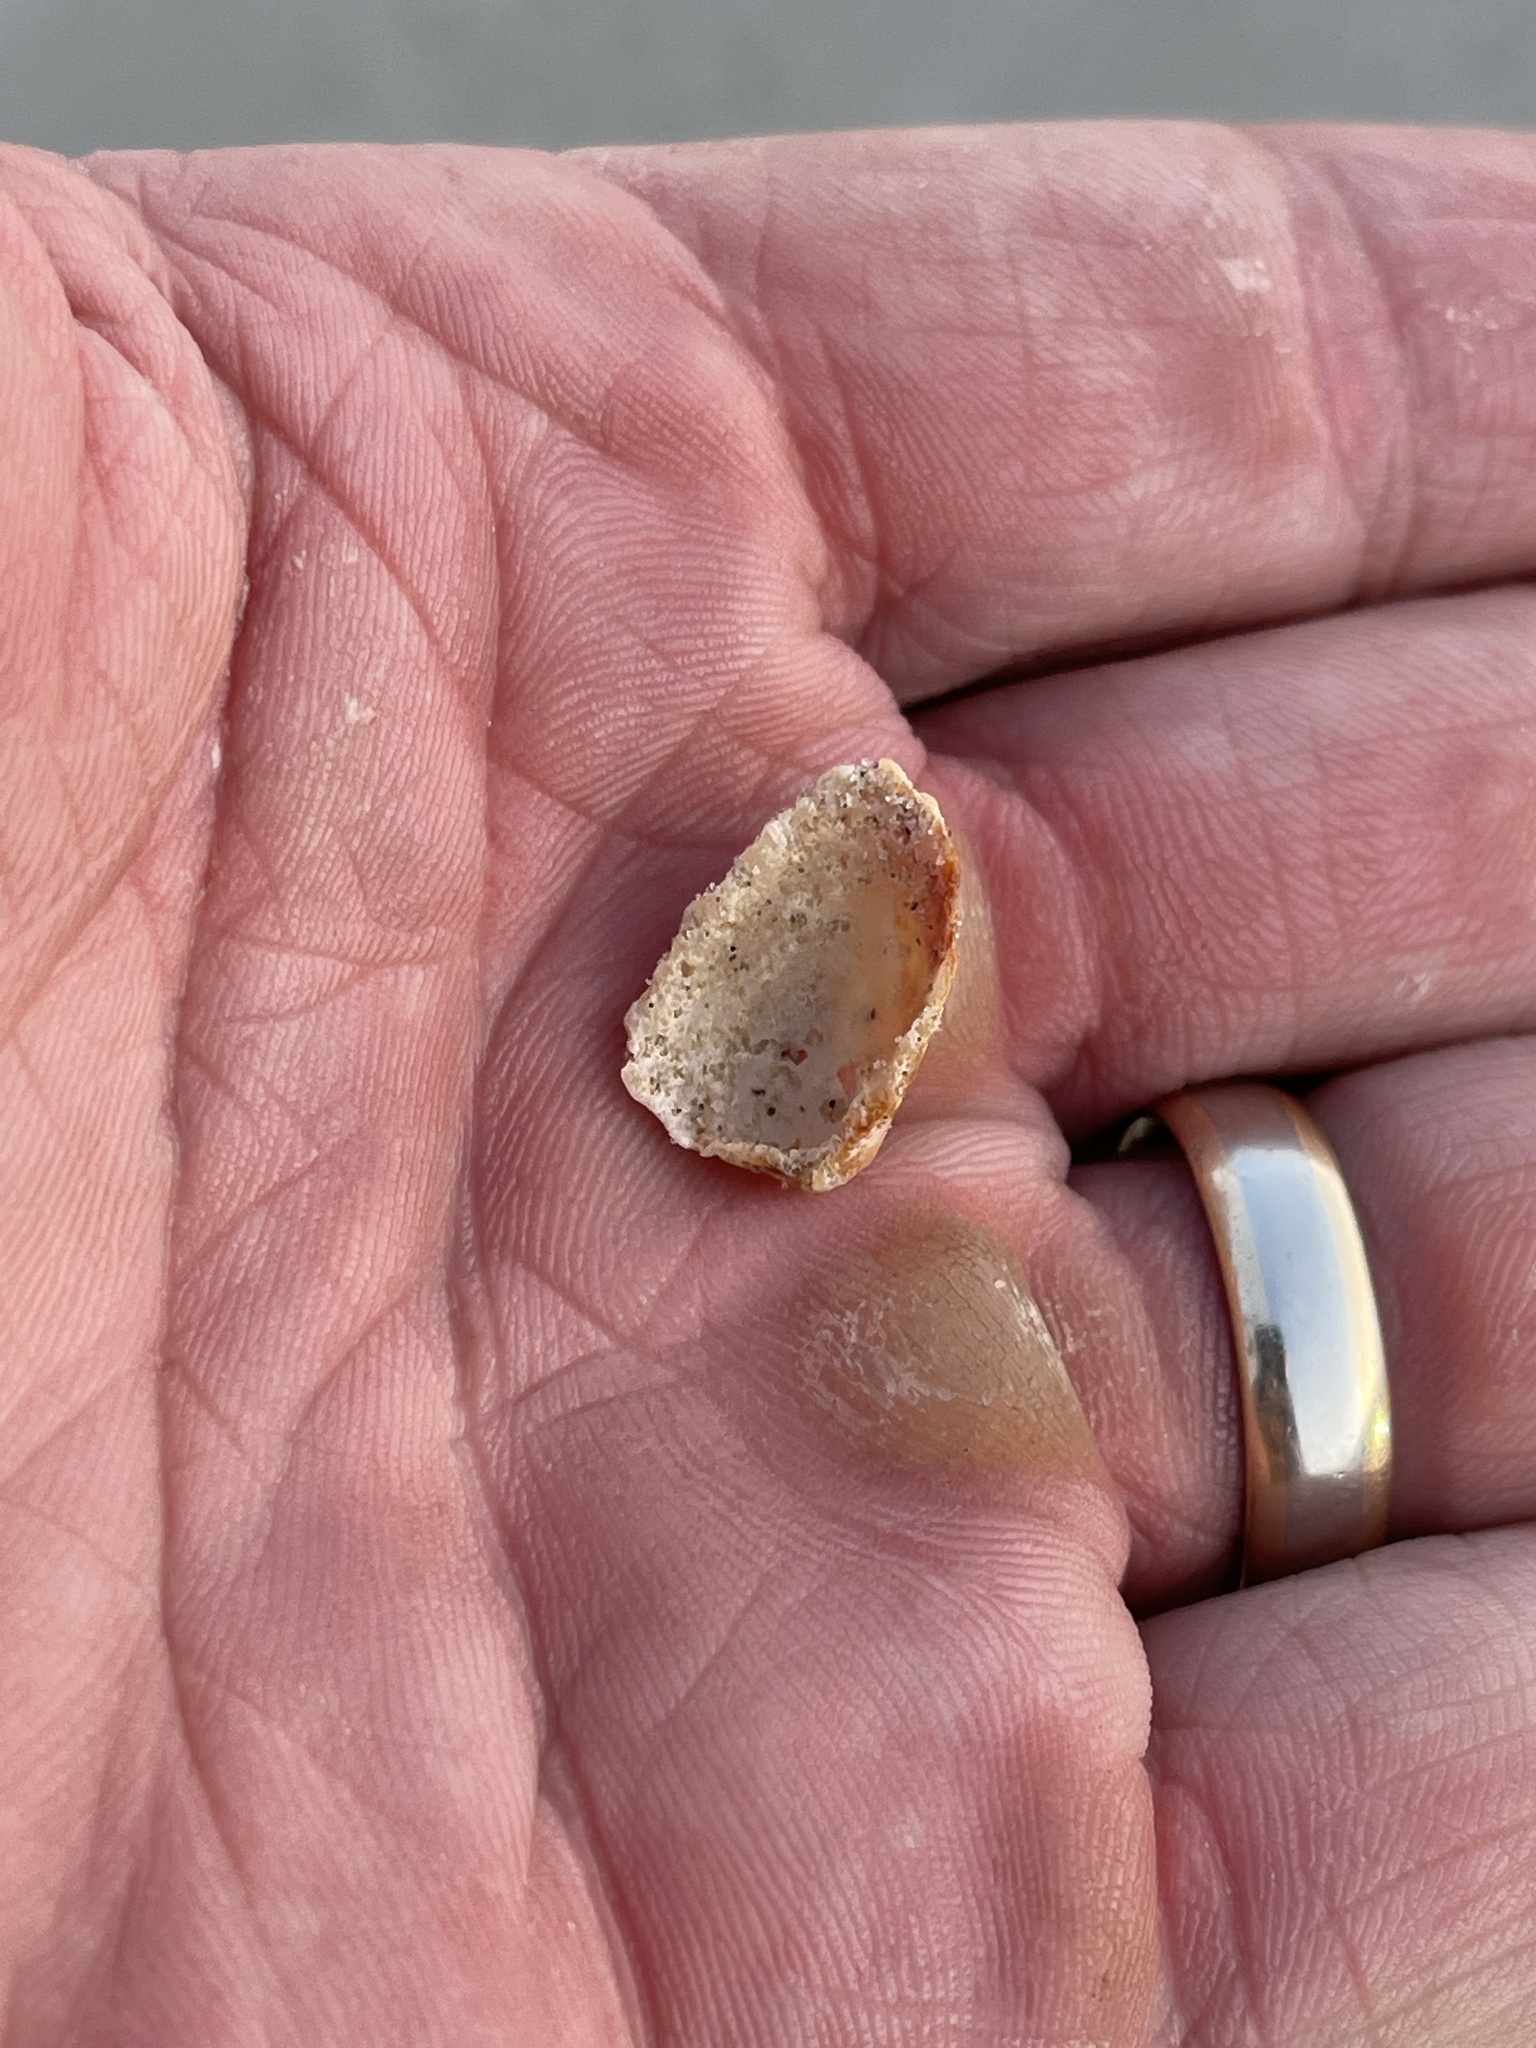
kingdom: Animalia
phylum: Mollusca
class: Bivalvia
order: Carditida
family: Carditidae
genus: Cardites
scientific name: Cardites floridanus
